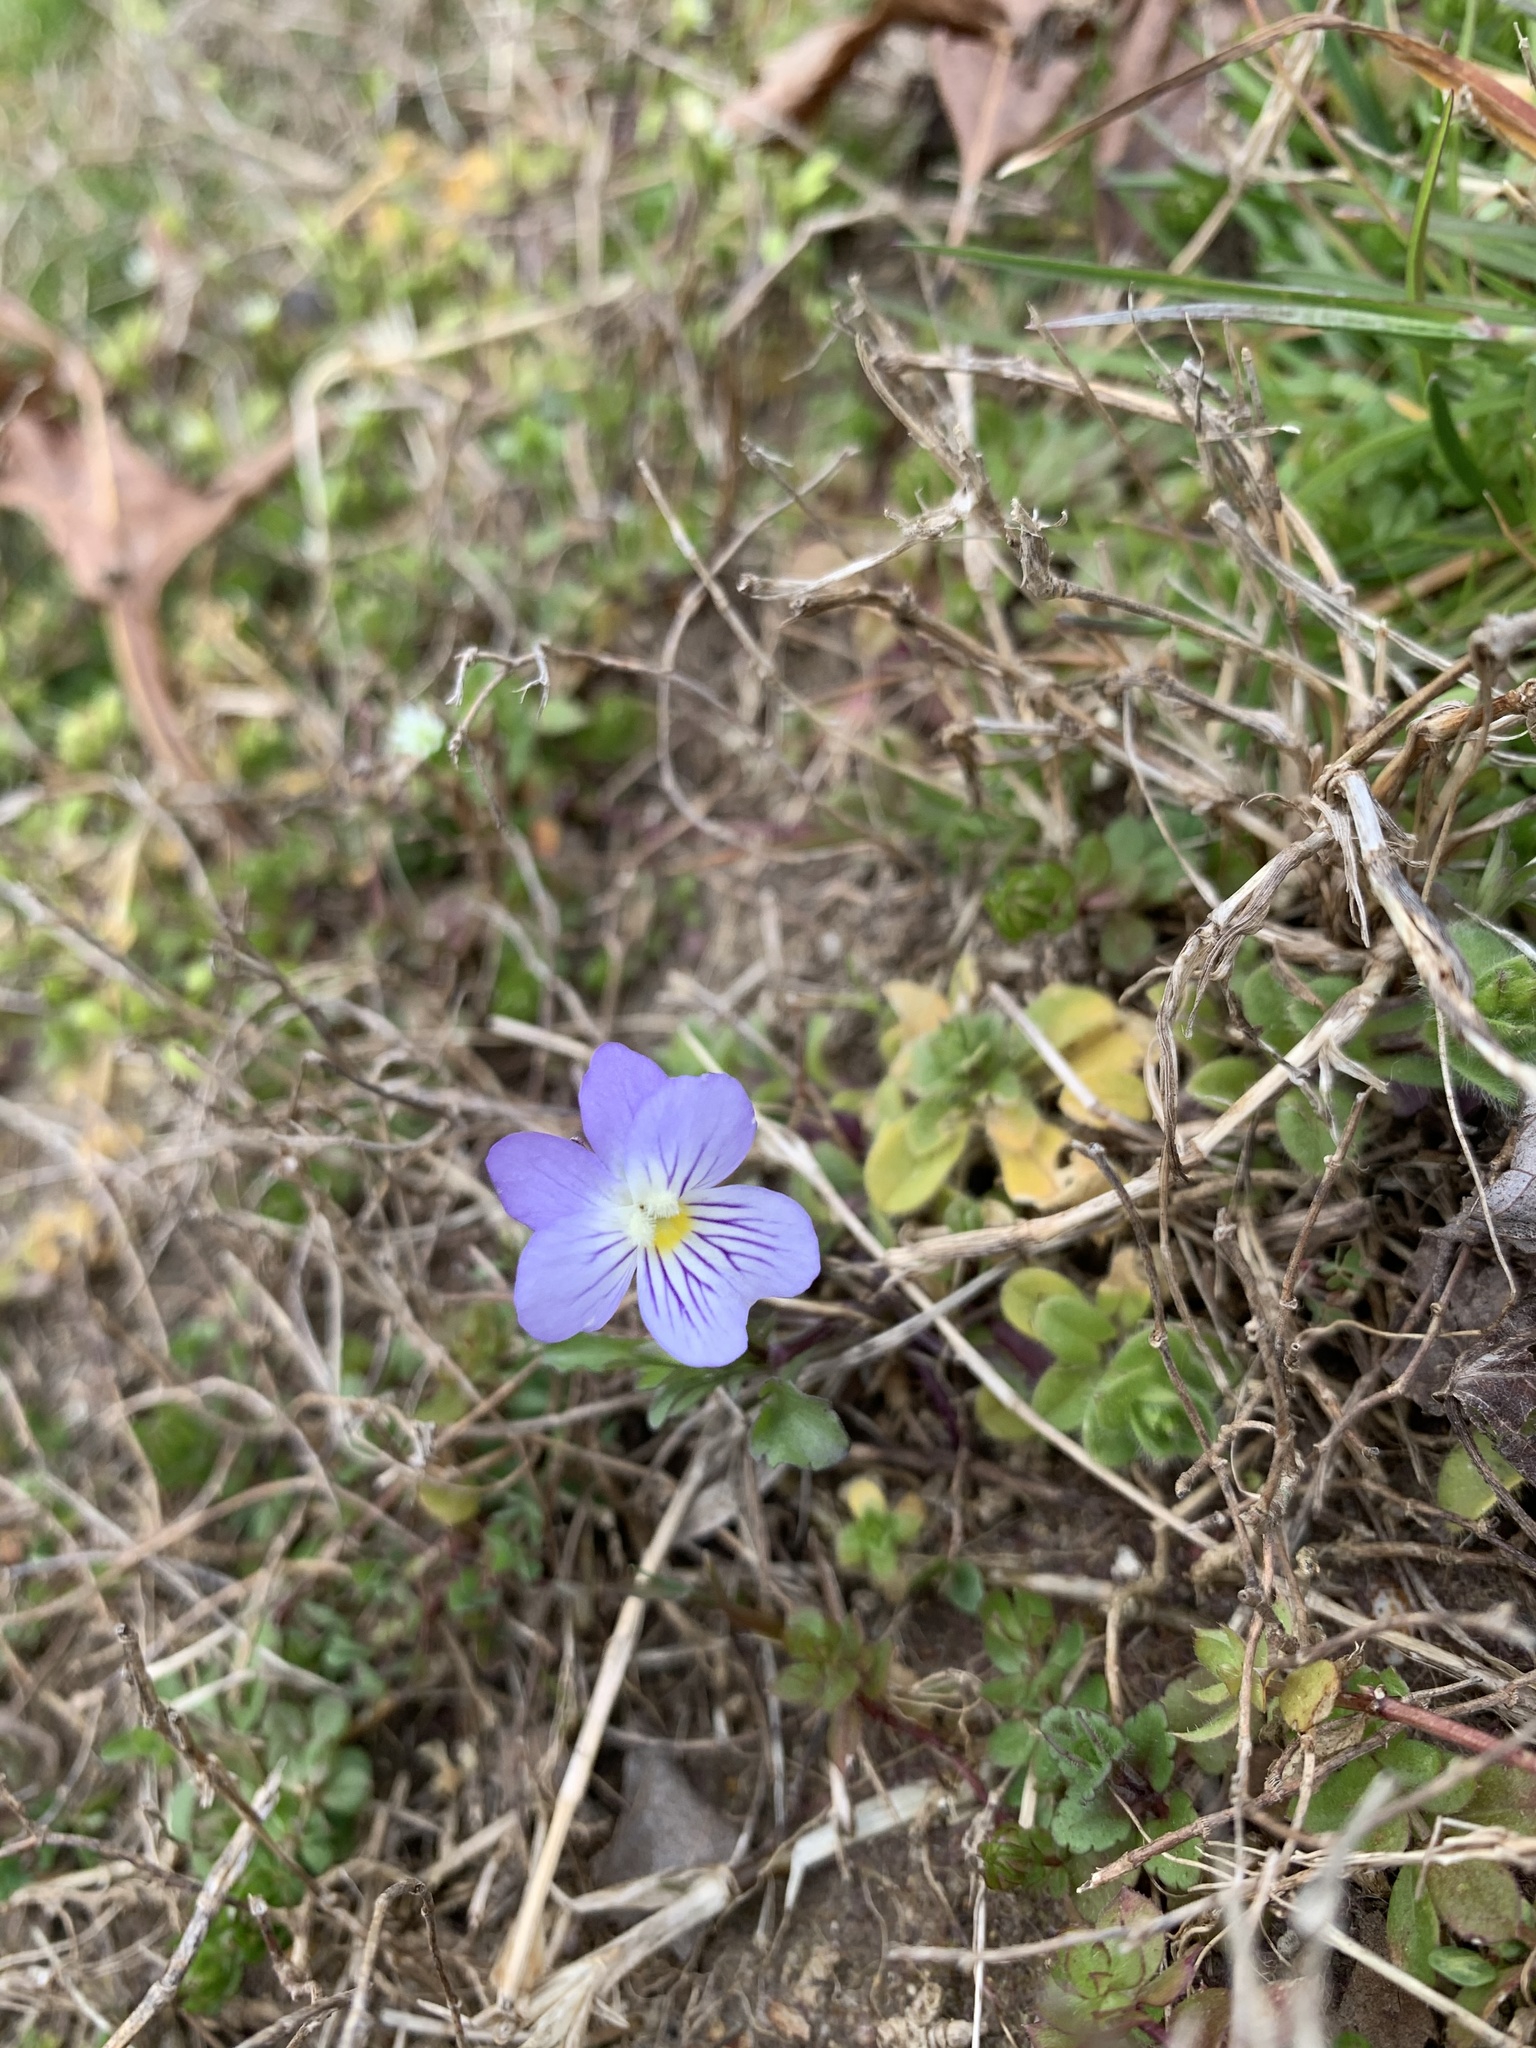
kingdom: Plantae
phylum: Tracheophyta
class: Magnoliopsida
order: Malpighiales
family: Violaceae
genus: Viola
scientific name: Viola rafinesquei
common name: American field pansy
